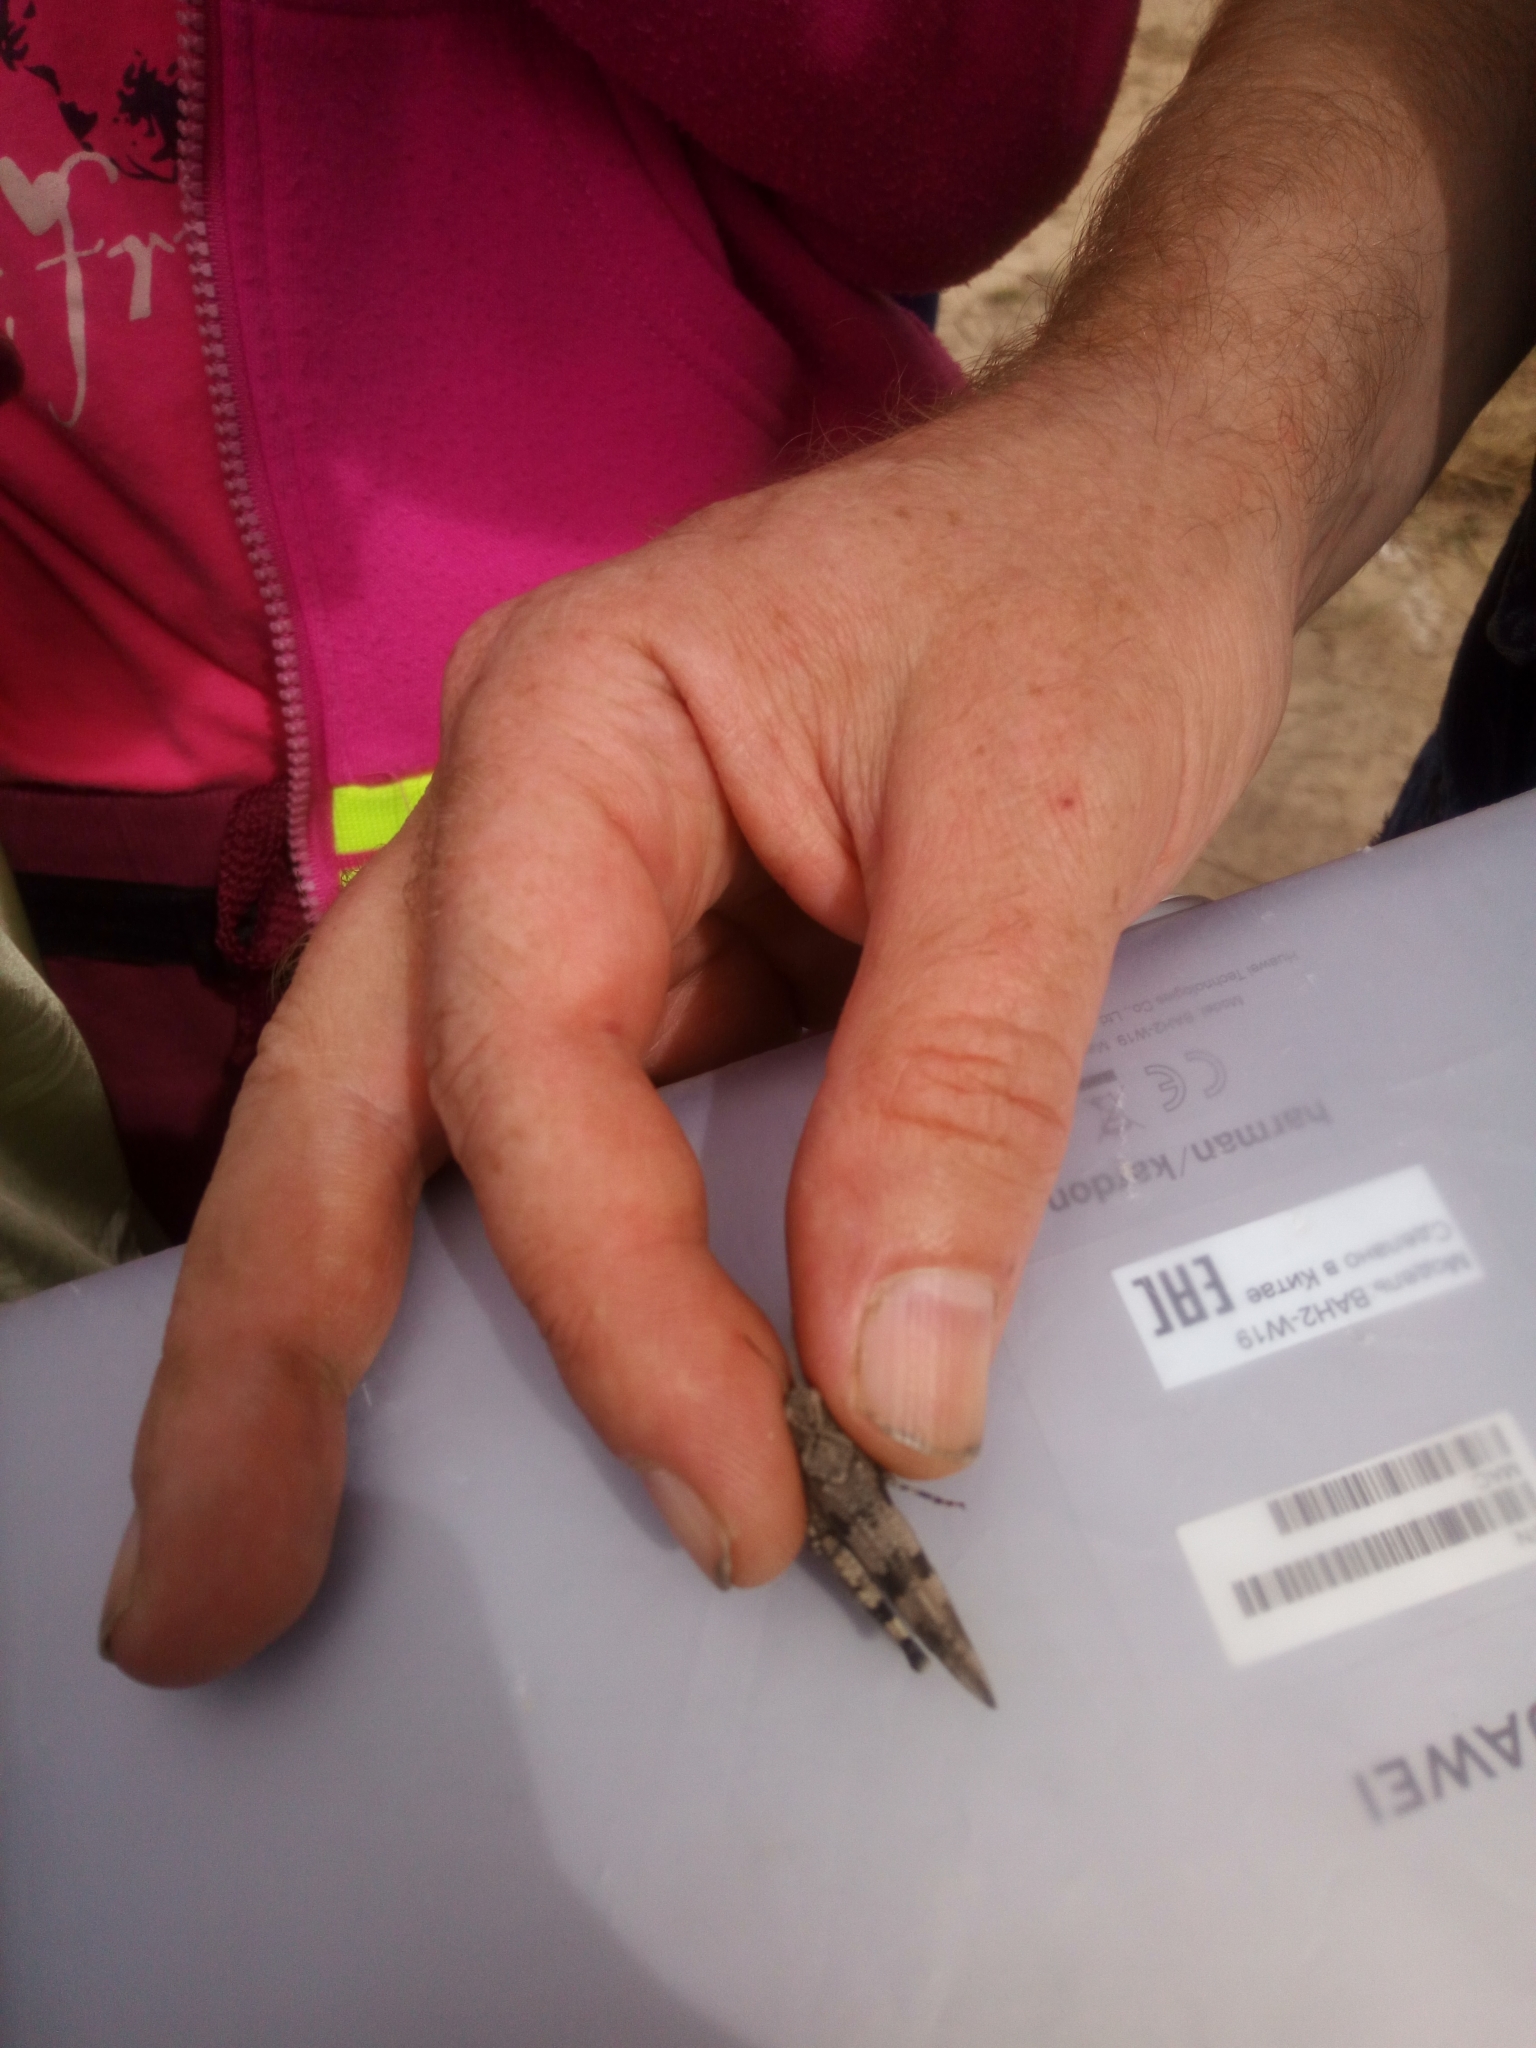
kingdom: Animalia
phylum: Arthropoda
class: Insecta
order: Orthoptera
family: Acrididae
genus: Oedipoda
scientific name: Oedipoda caerulescens
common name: Blue-winged grasshopper
